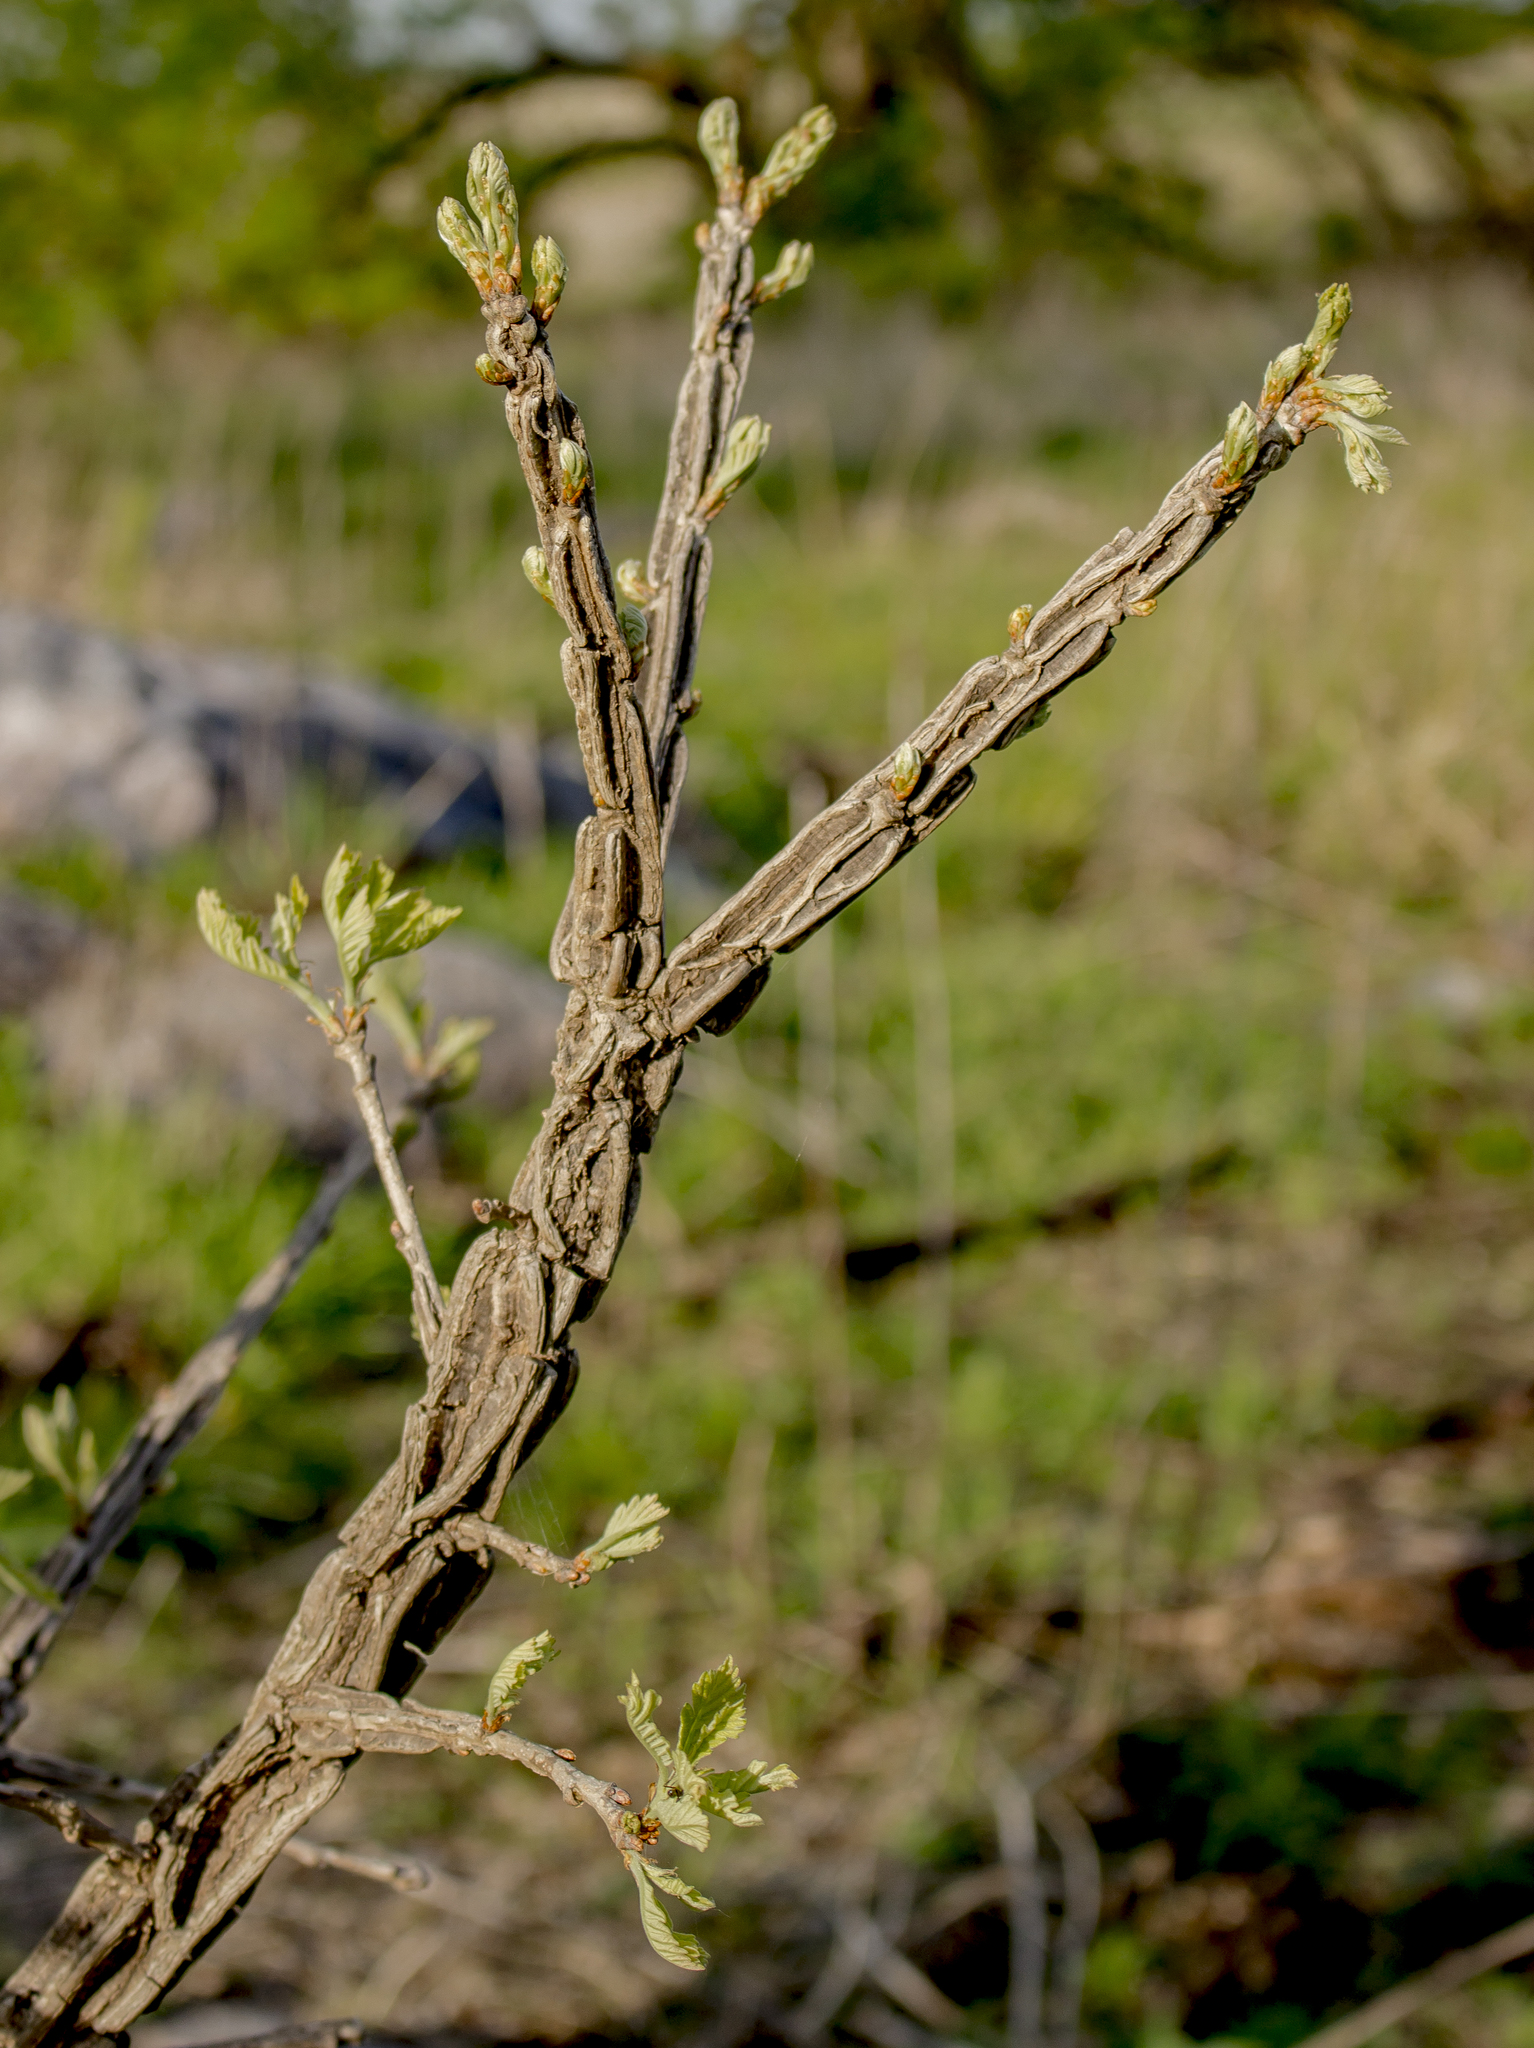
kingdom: Plantae
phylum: Tracheophyta
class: Magnoliopsida
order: Fagales
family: Fagaceae
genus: Quercus
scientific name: Quercus macrocarpa
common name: Bur oak
